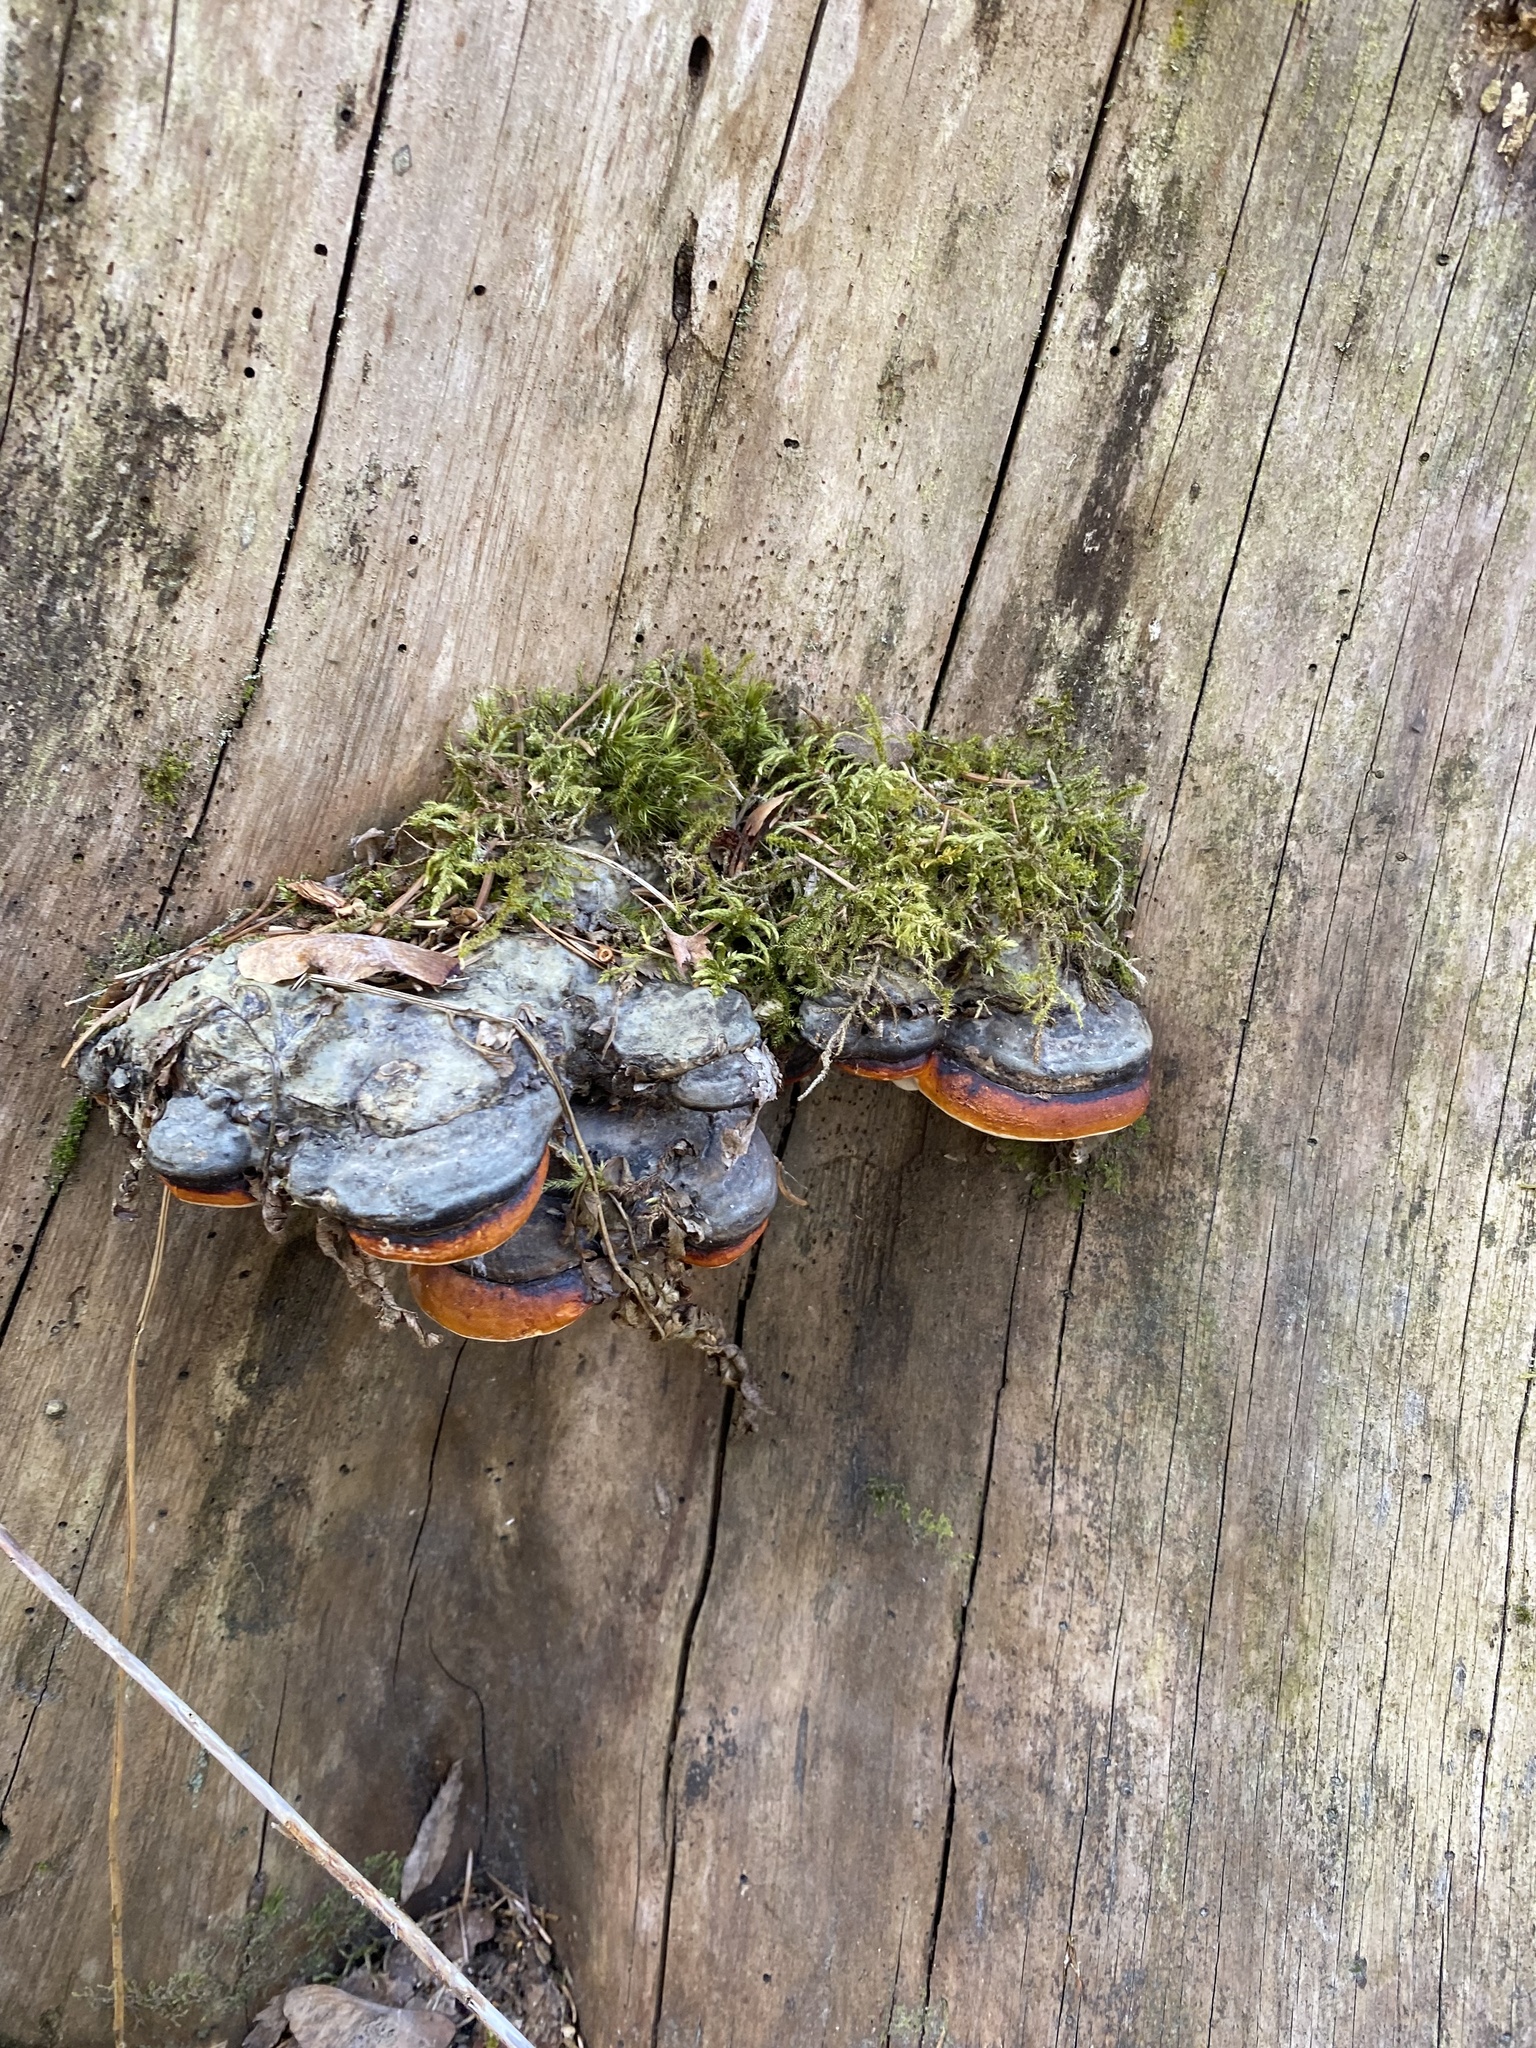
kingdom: Fungi
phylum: Basidiomycota
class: Agaricomycetes
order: Polyporales
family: Fomitopsidaceae
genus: Fomitopsis
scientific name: Fomitopsis pinicola
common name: Red-belted bracket
